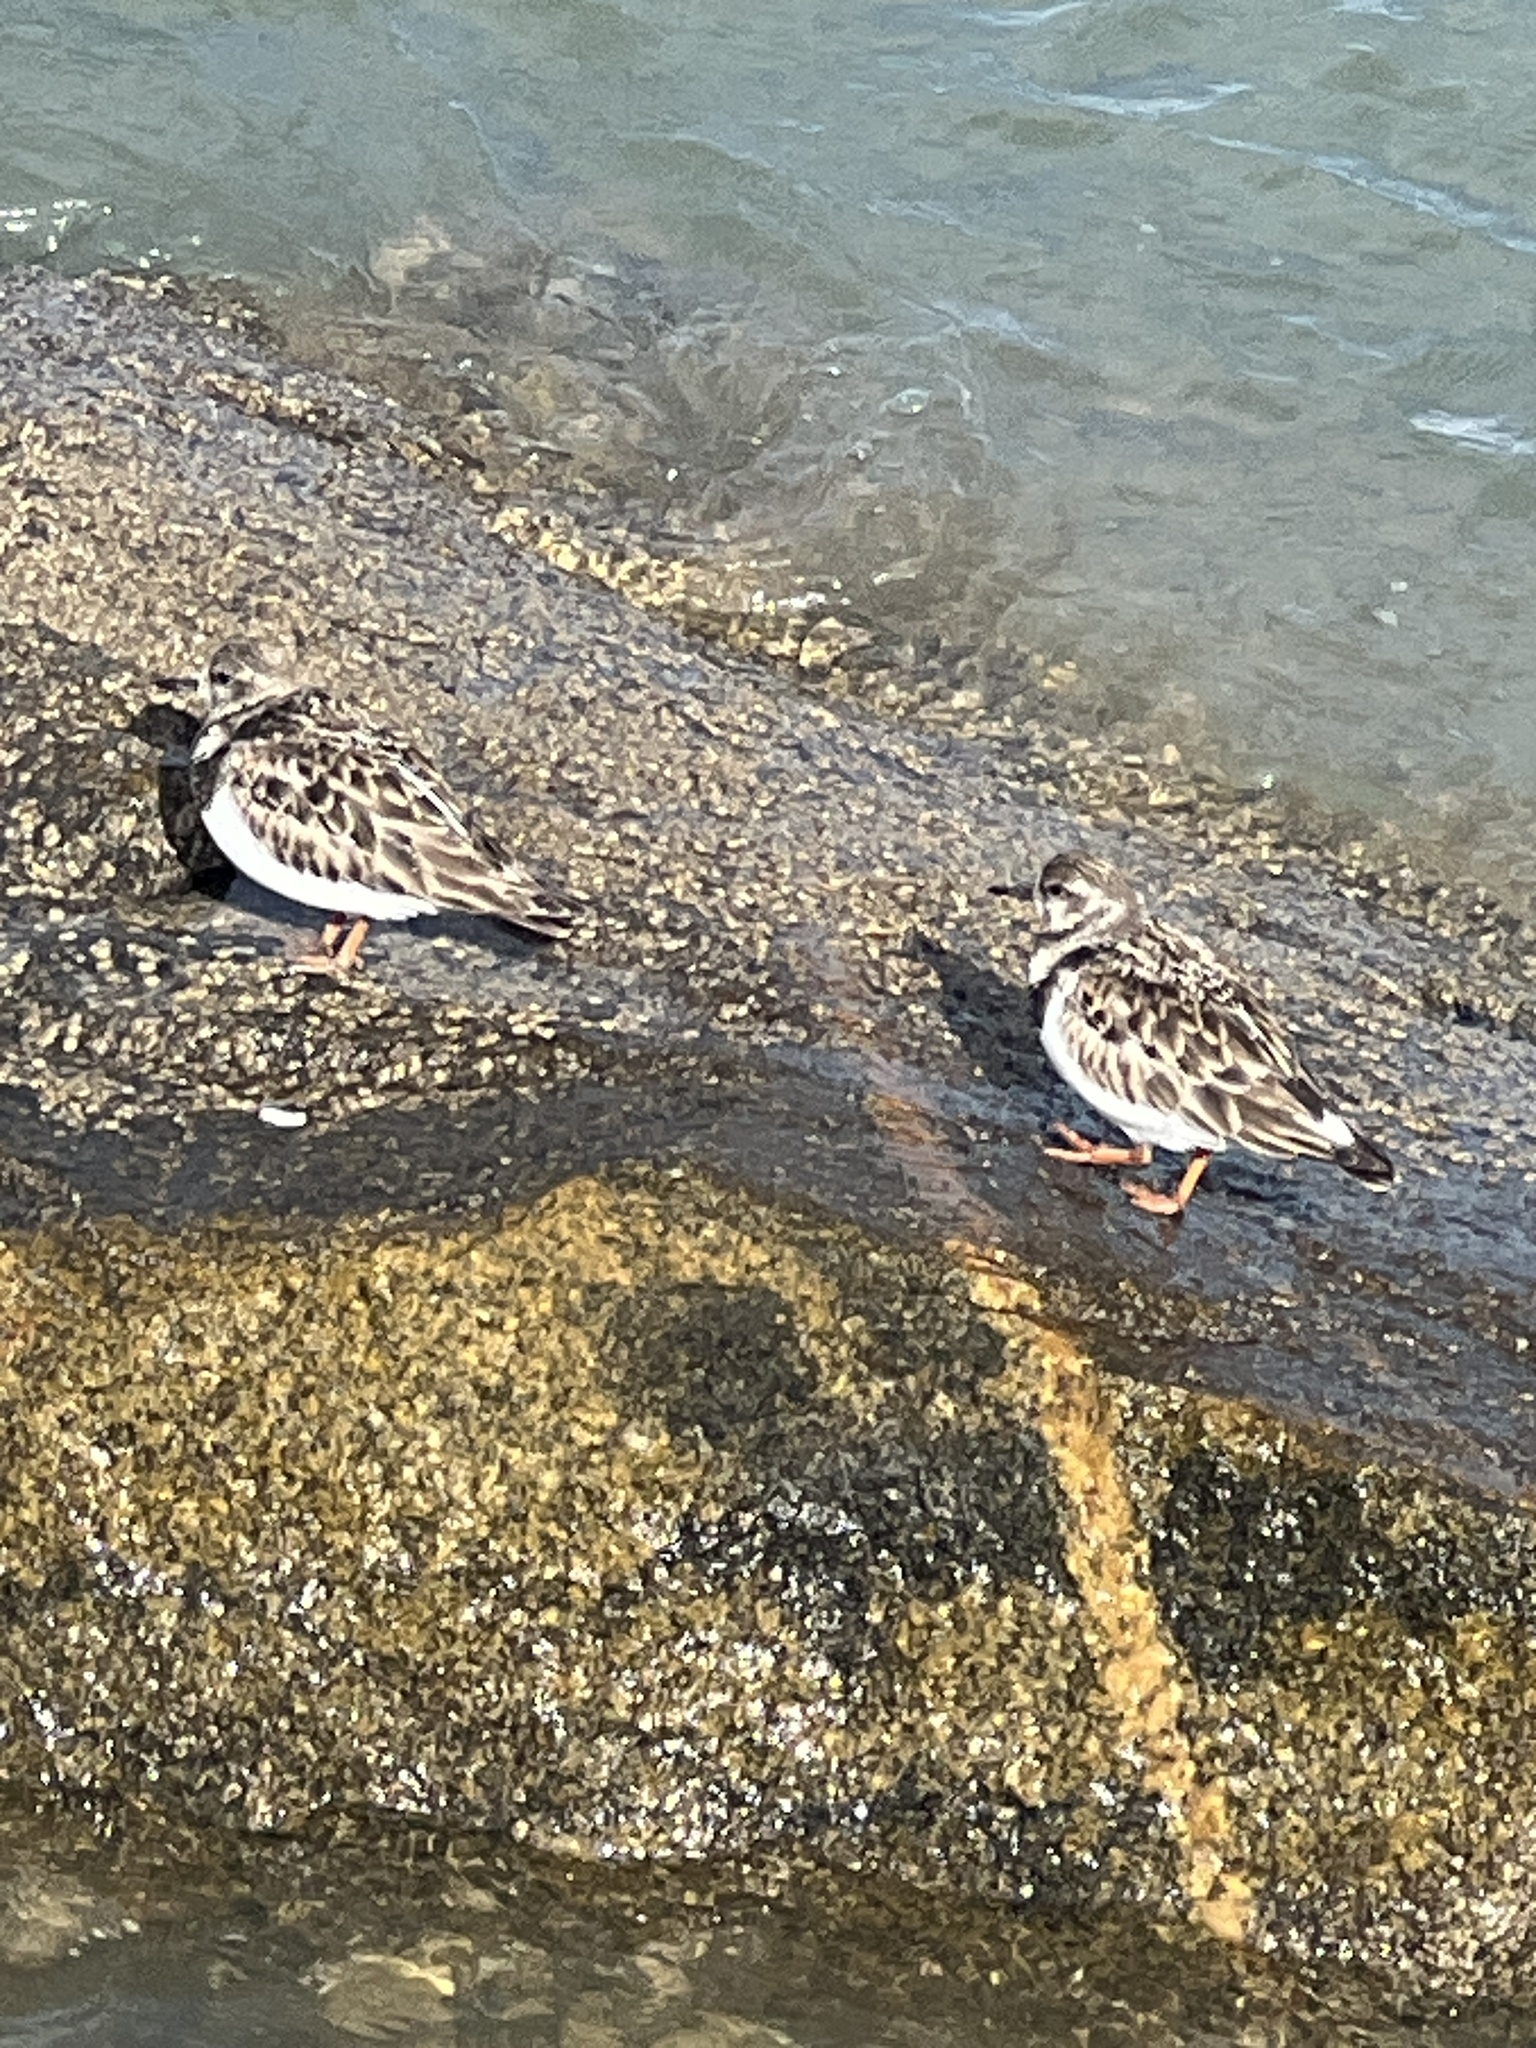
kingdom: Animalia
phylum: Chordata
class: Aves
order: Charadriiformes
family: Scolopacidae
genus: Arenaria
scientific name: Arenaria interpres
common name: Ruddy turnstone
